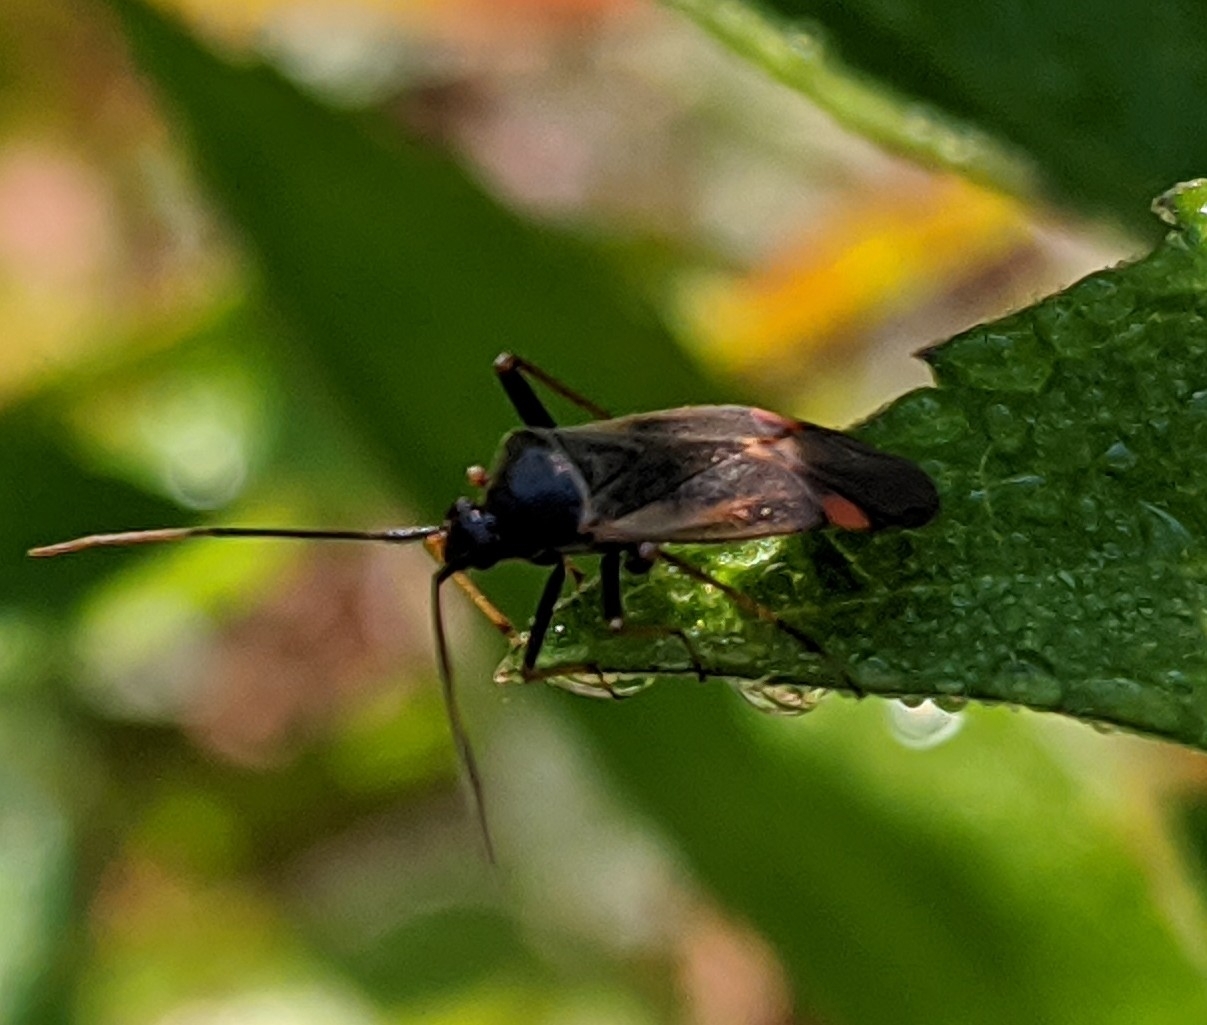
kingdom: Animalia
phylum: Arthropoda
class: Insecta
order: Hemiptera
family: Miridae
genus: Adelphocoris
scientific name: Adelphocoris seticornis
